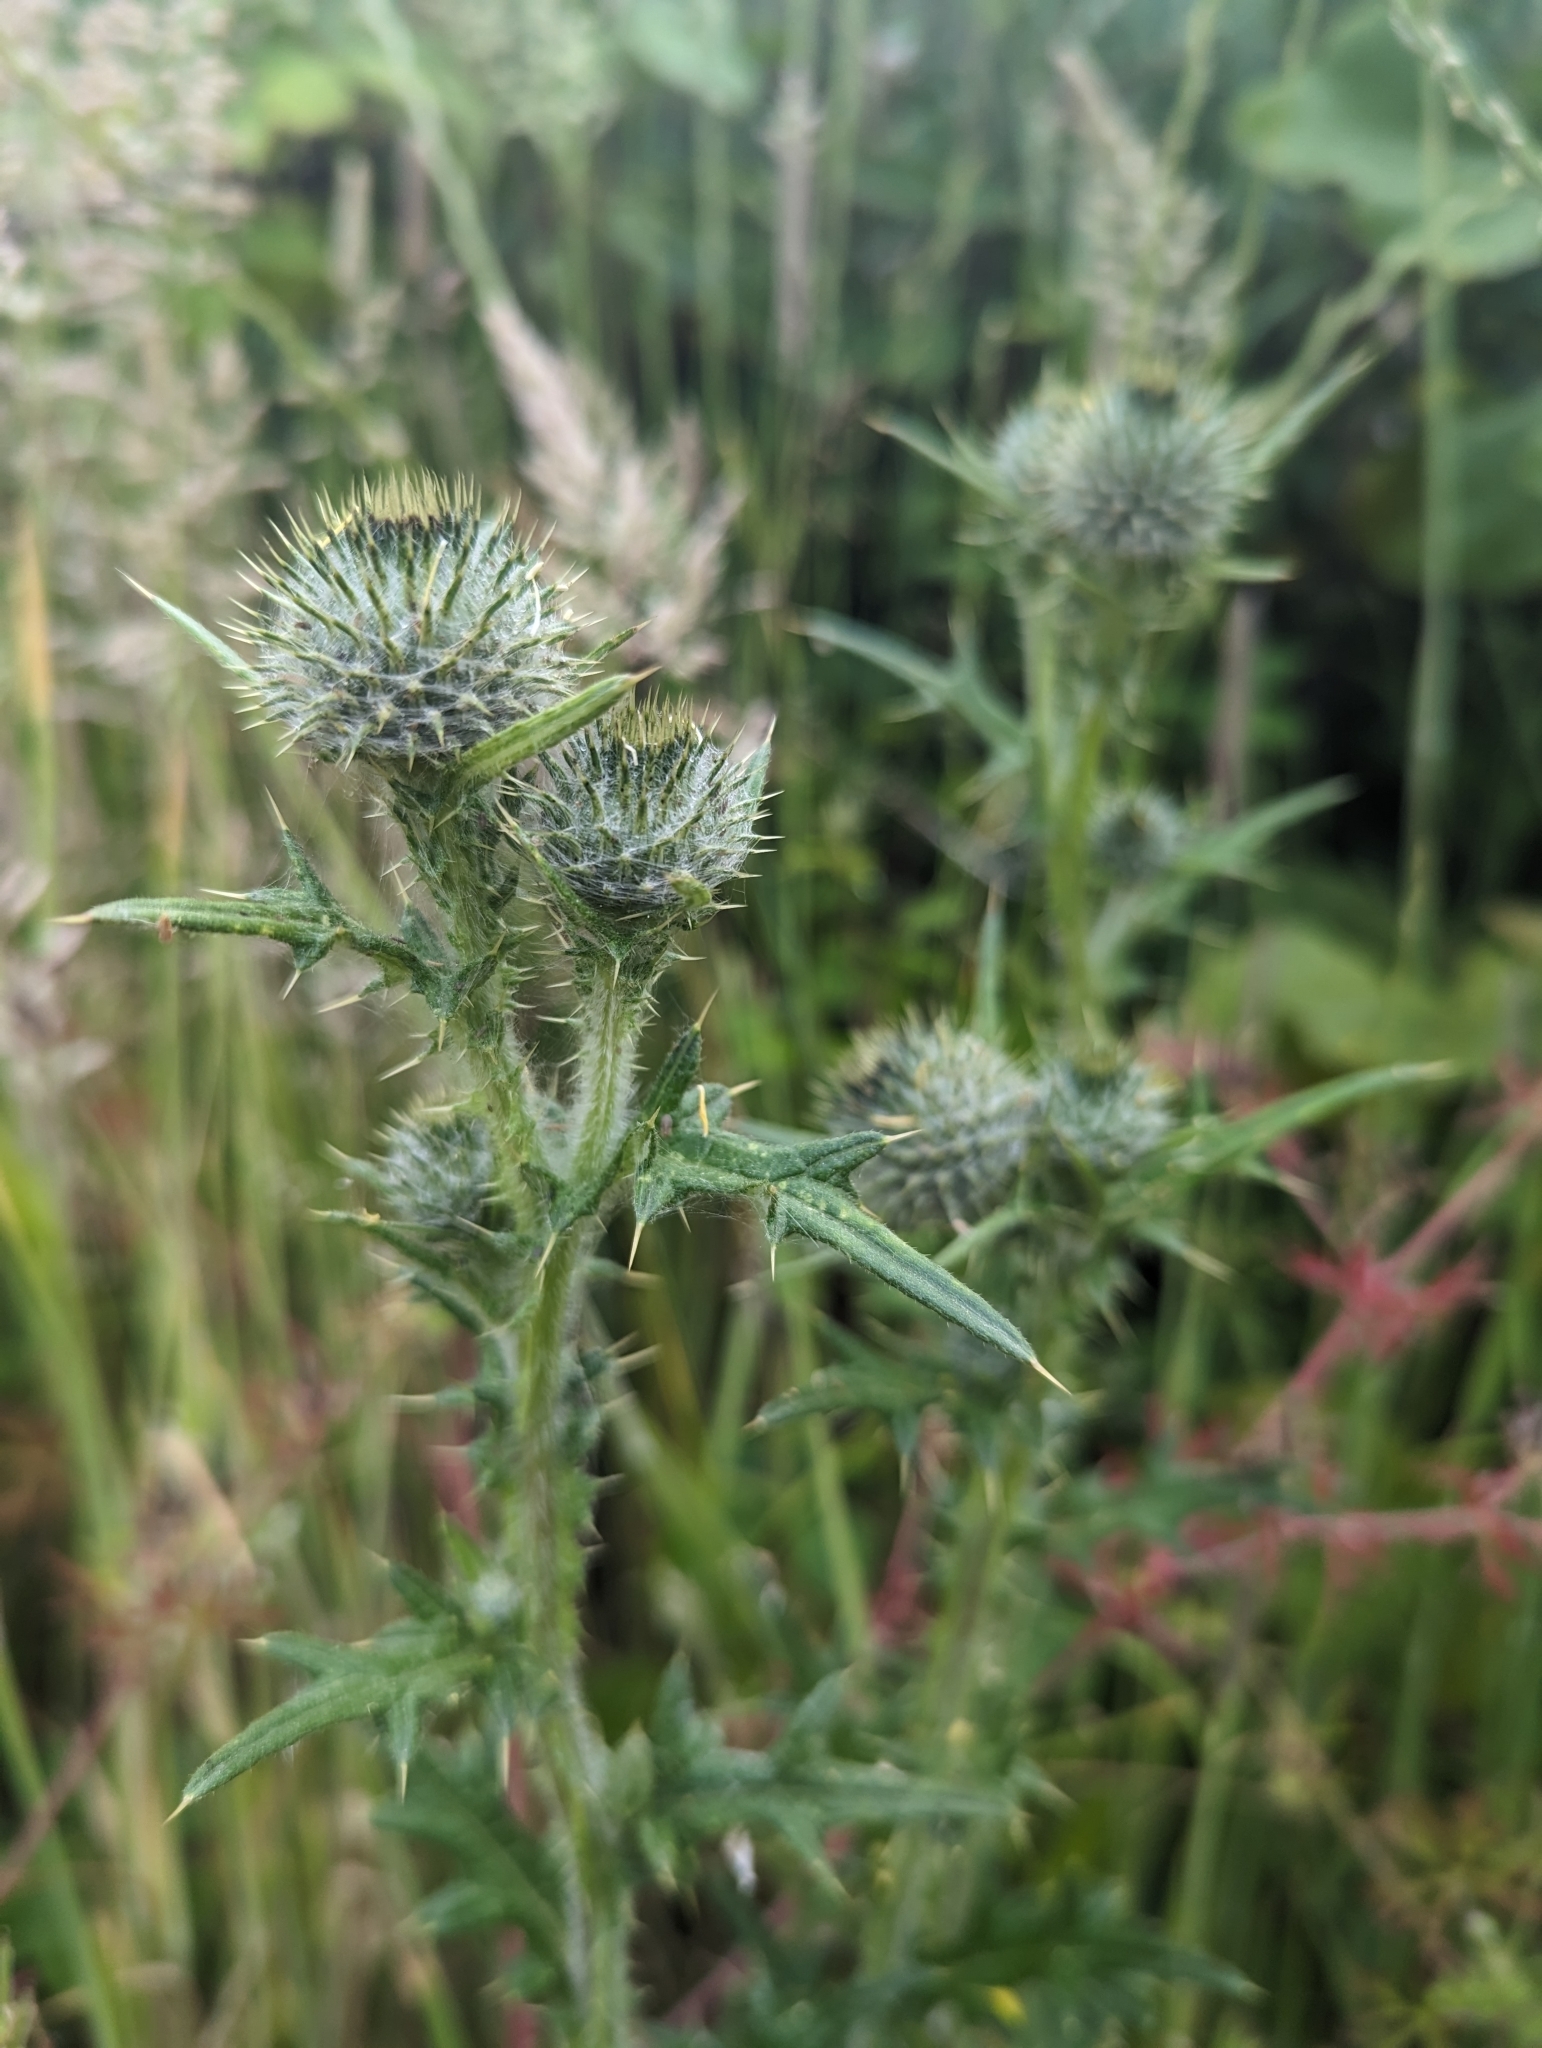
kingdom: Plantae
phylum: Tracheophyta
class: Magnoliopsida
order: Asterales
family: Asteraceae
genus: Cirsium
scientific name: Cirsium vulgare
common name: Bull thistle
